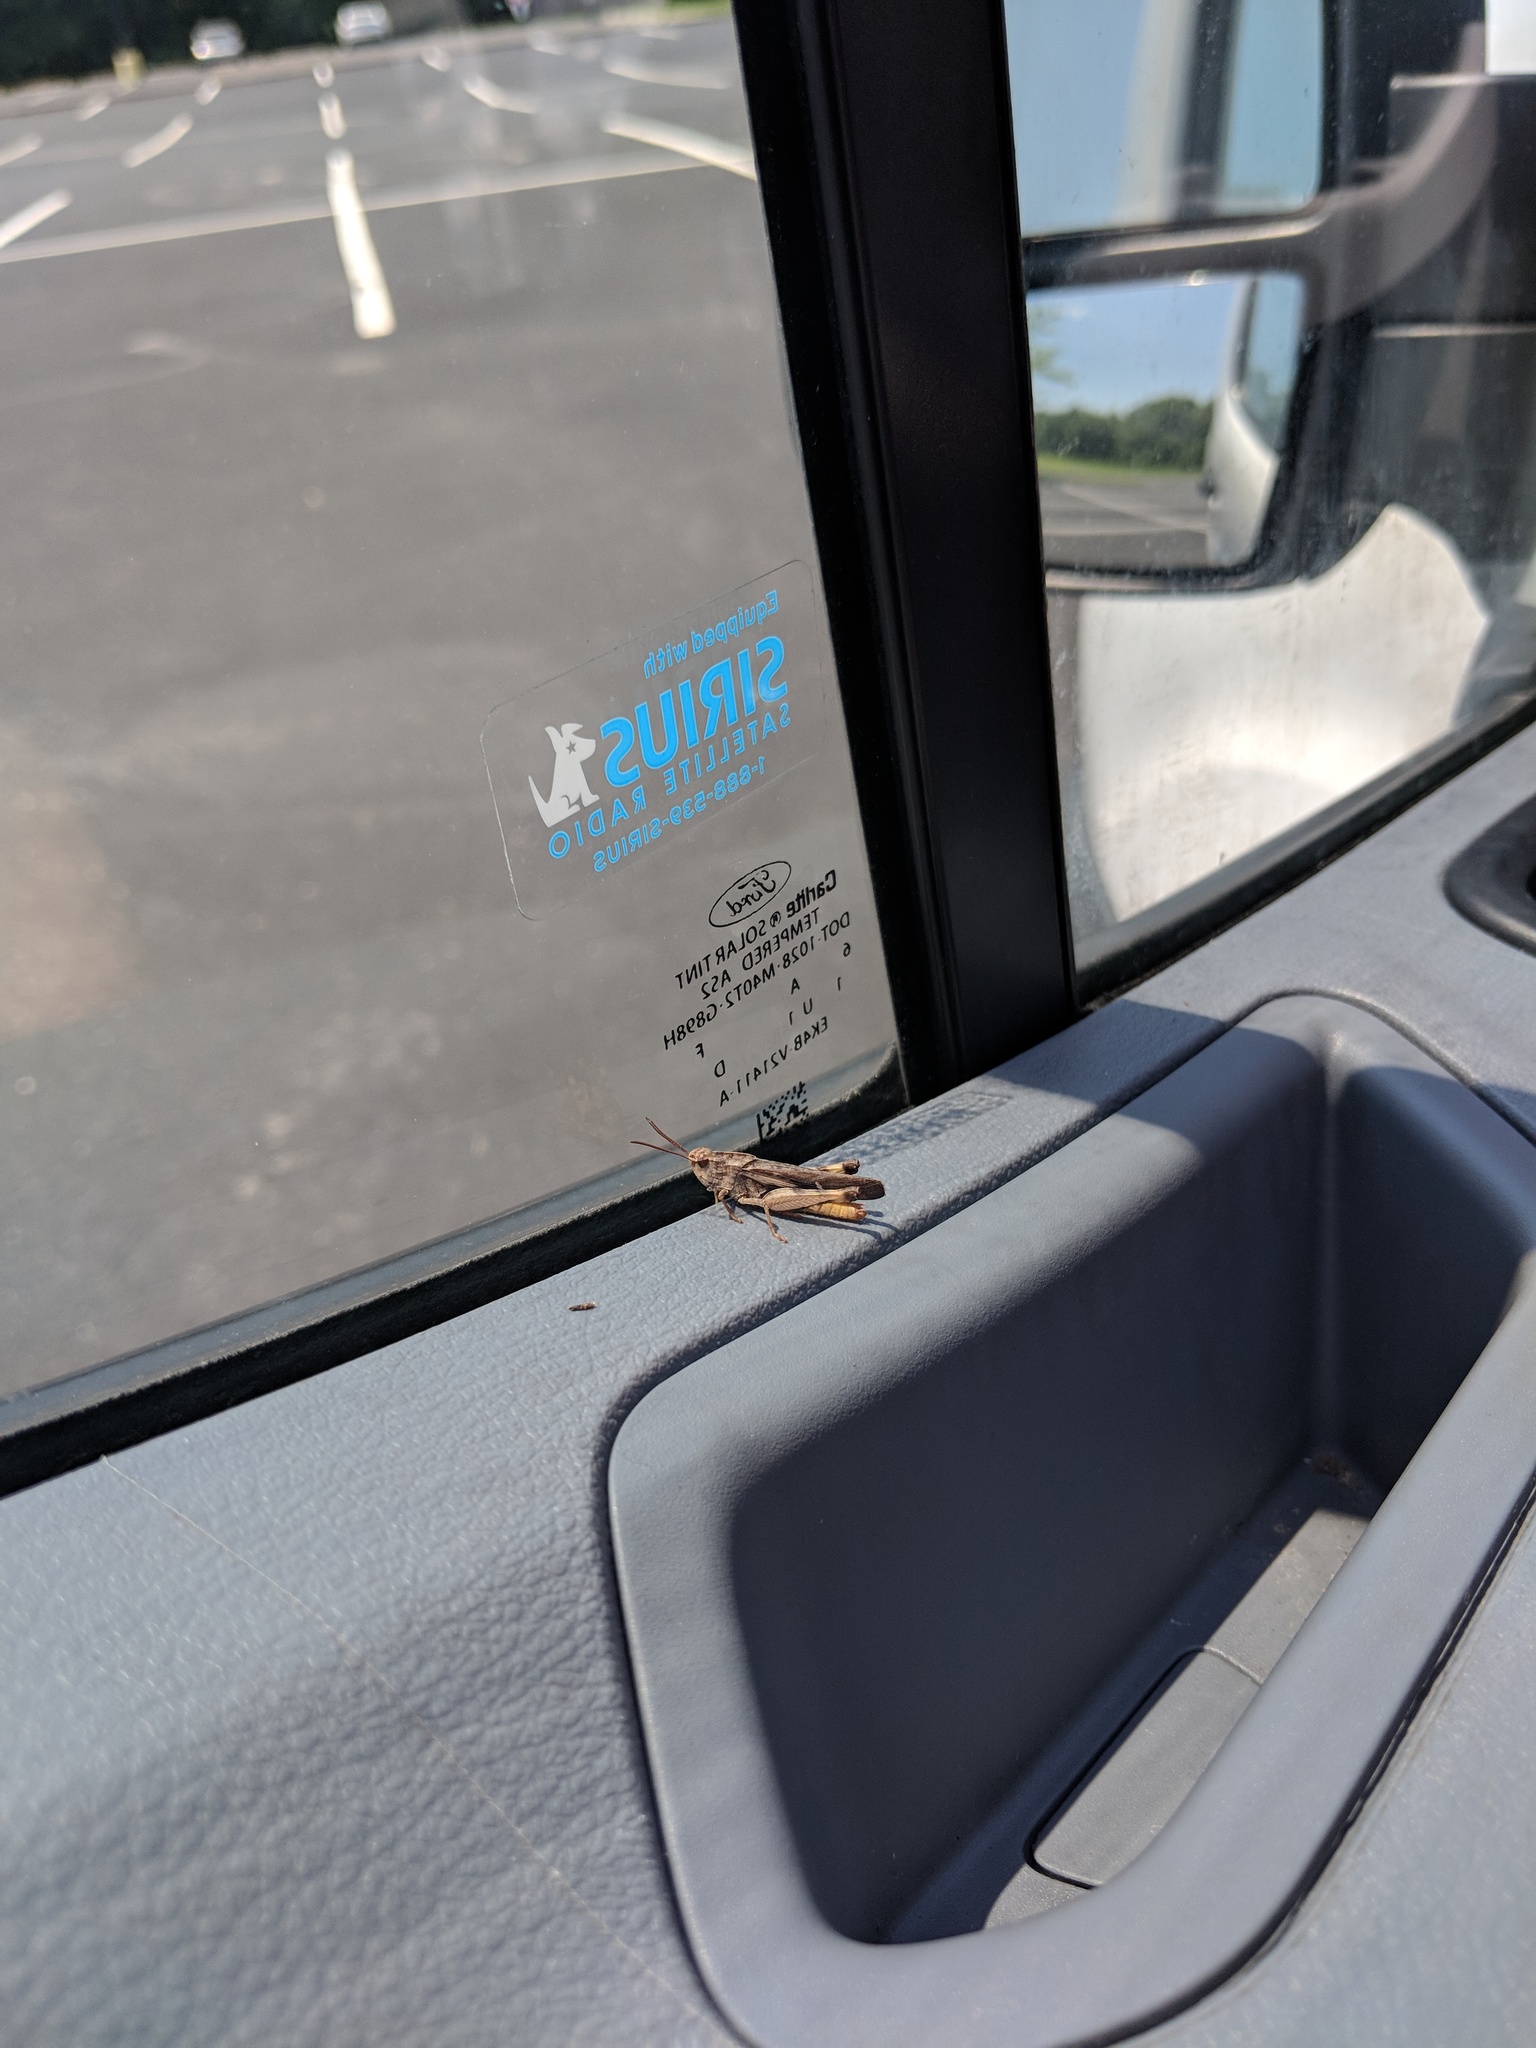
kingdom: Animalia
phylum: Arthropoda
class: Insecta
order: Orthoptera
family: Acrididae
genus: Chortophaga
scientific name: Chortophaga viridifasciata
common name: Green-striped grasshopper
